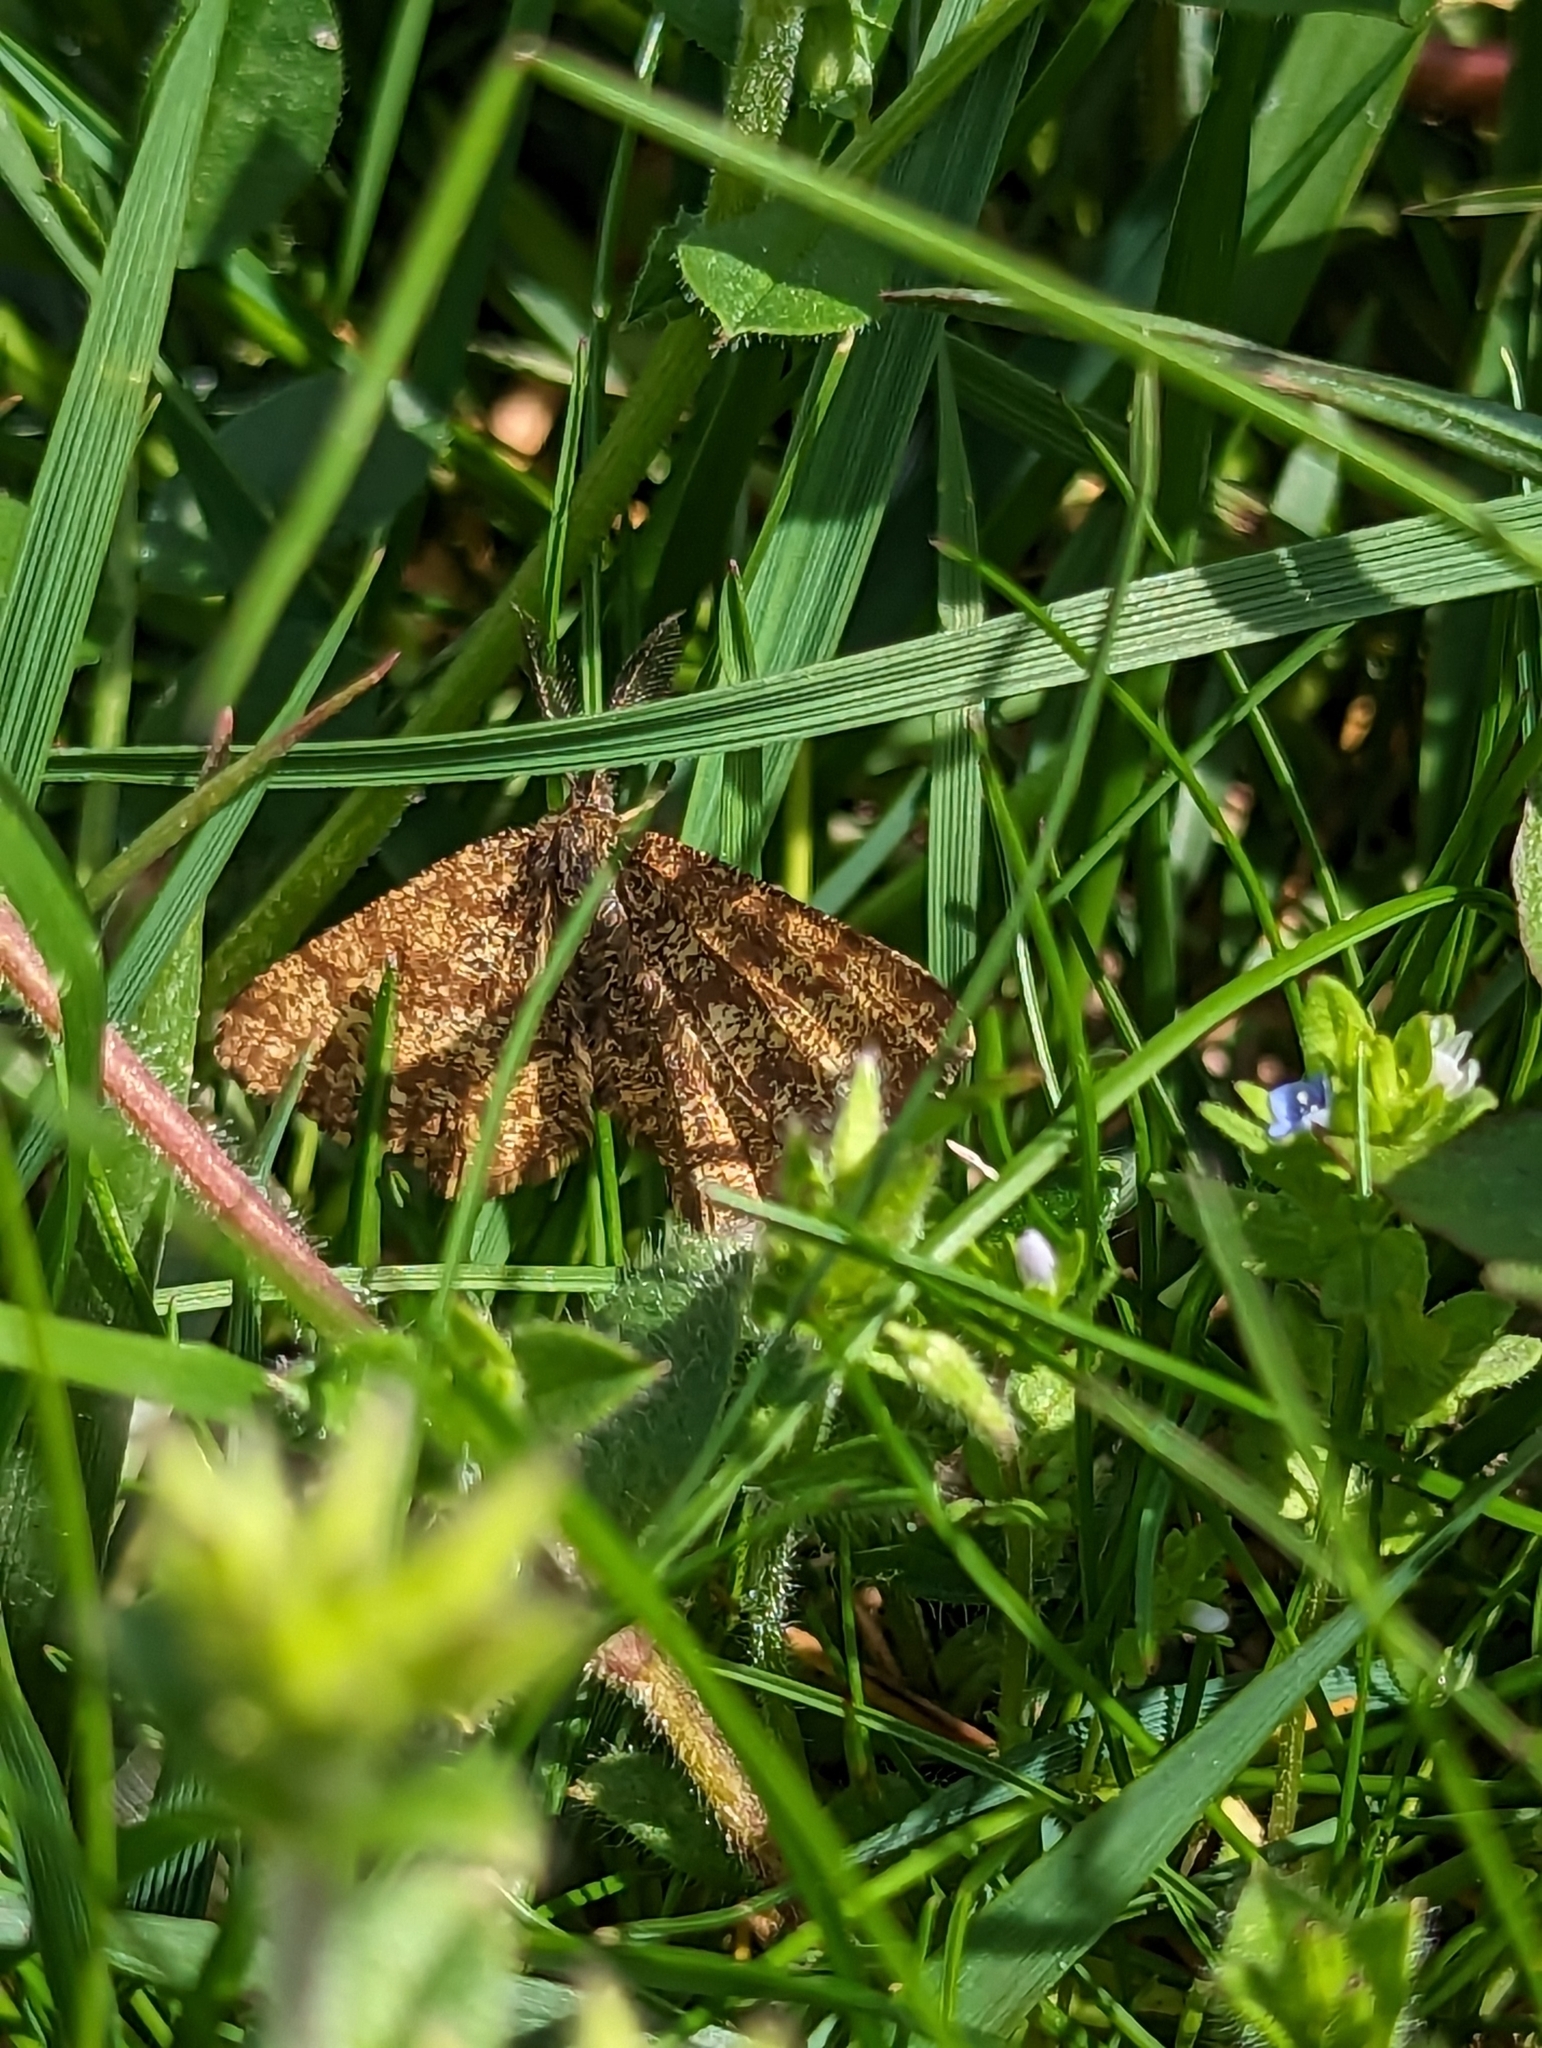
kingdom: Animalia
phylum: Arthropoda
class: Insecta
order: Lepidoptera
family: Geometridae
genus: Ematurga
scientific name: Ematurga atomaria
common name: Common heath
